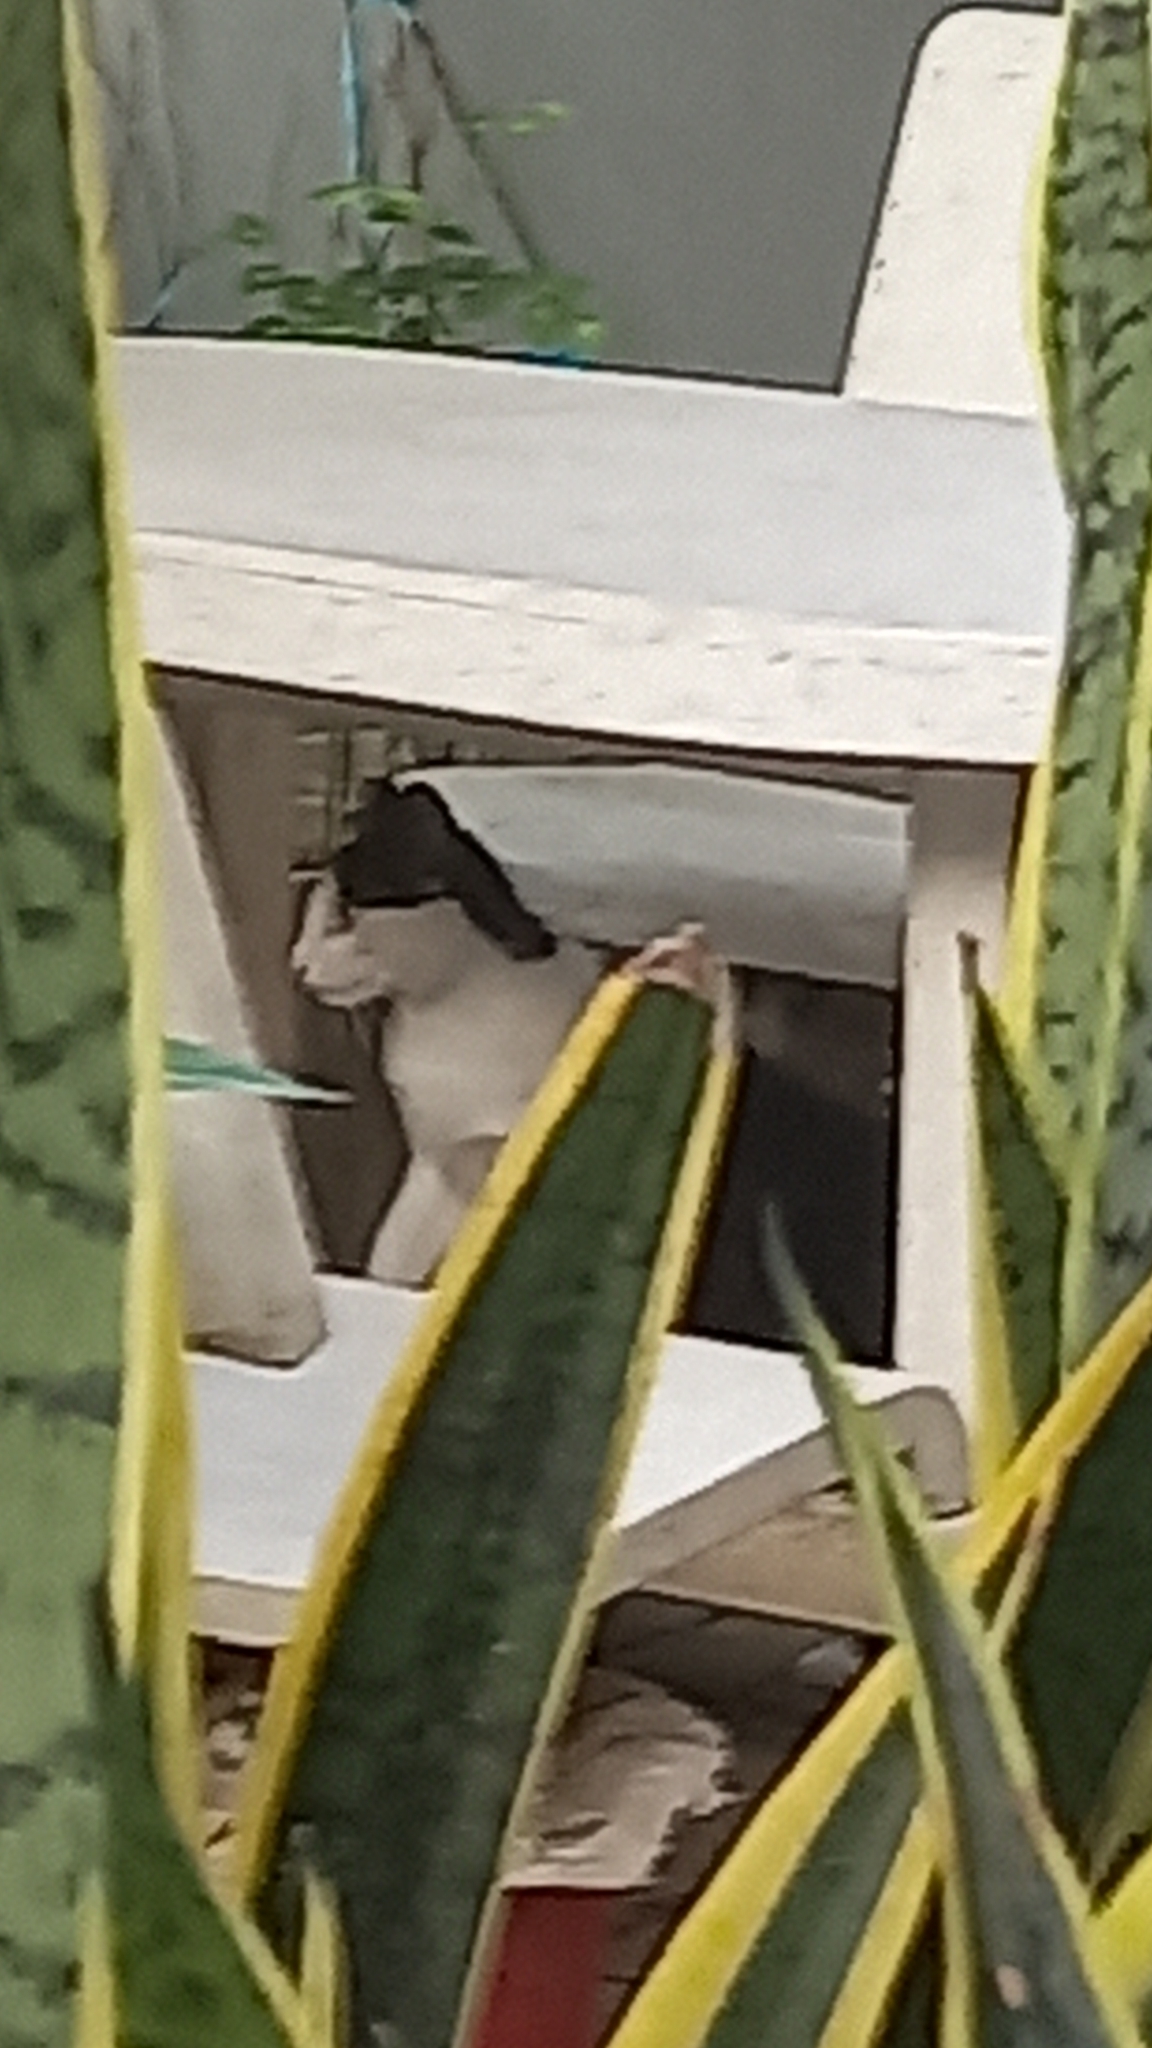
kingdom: Animalia
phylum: Chordata
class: Mammalia
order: Carnivora
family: Felidae
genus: Felis
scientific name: Felis catus
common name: Domestic cat
